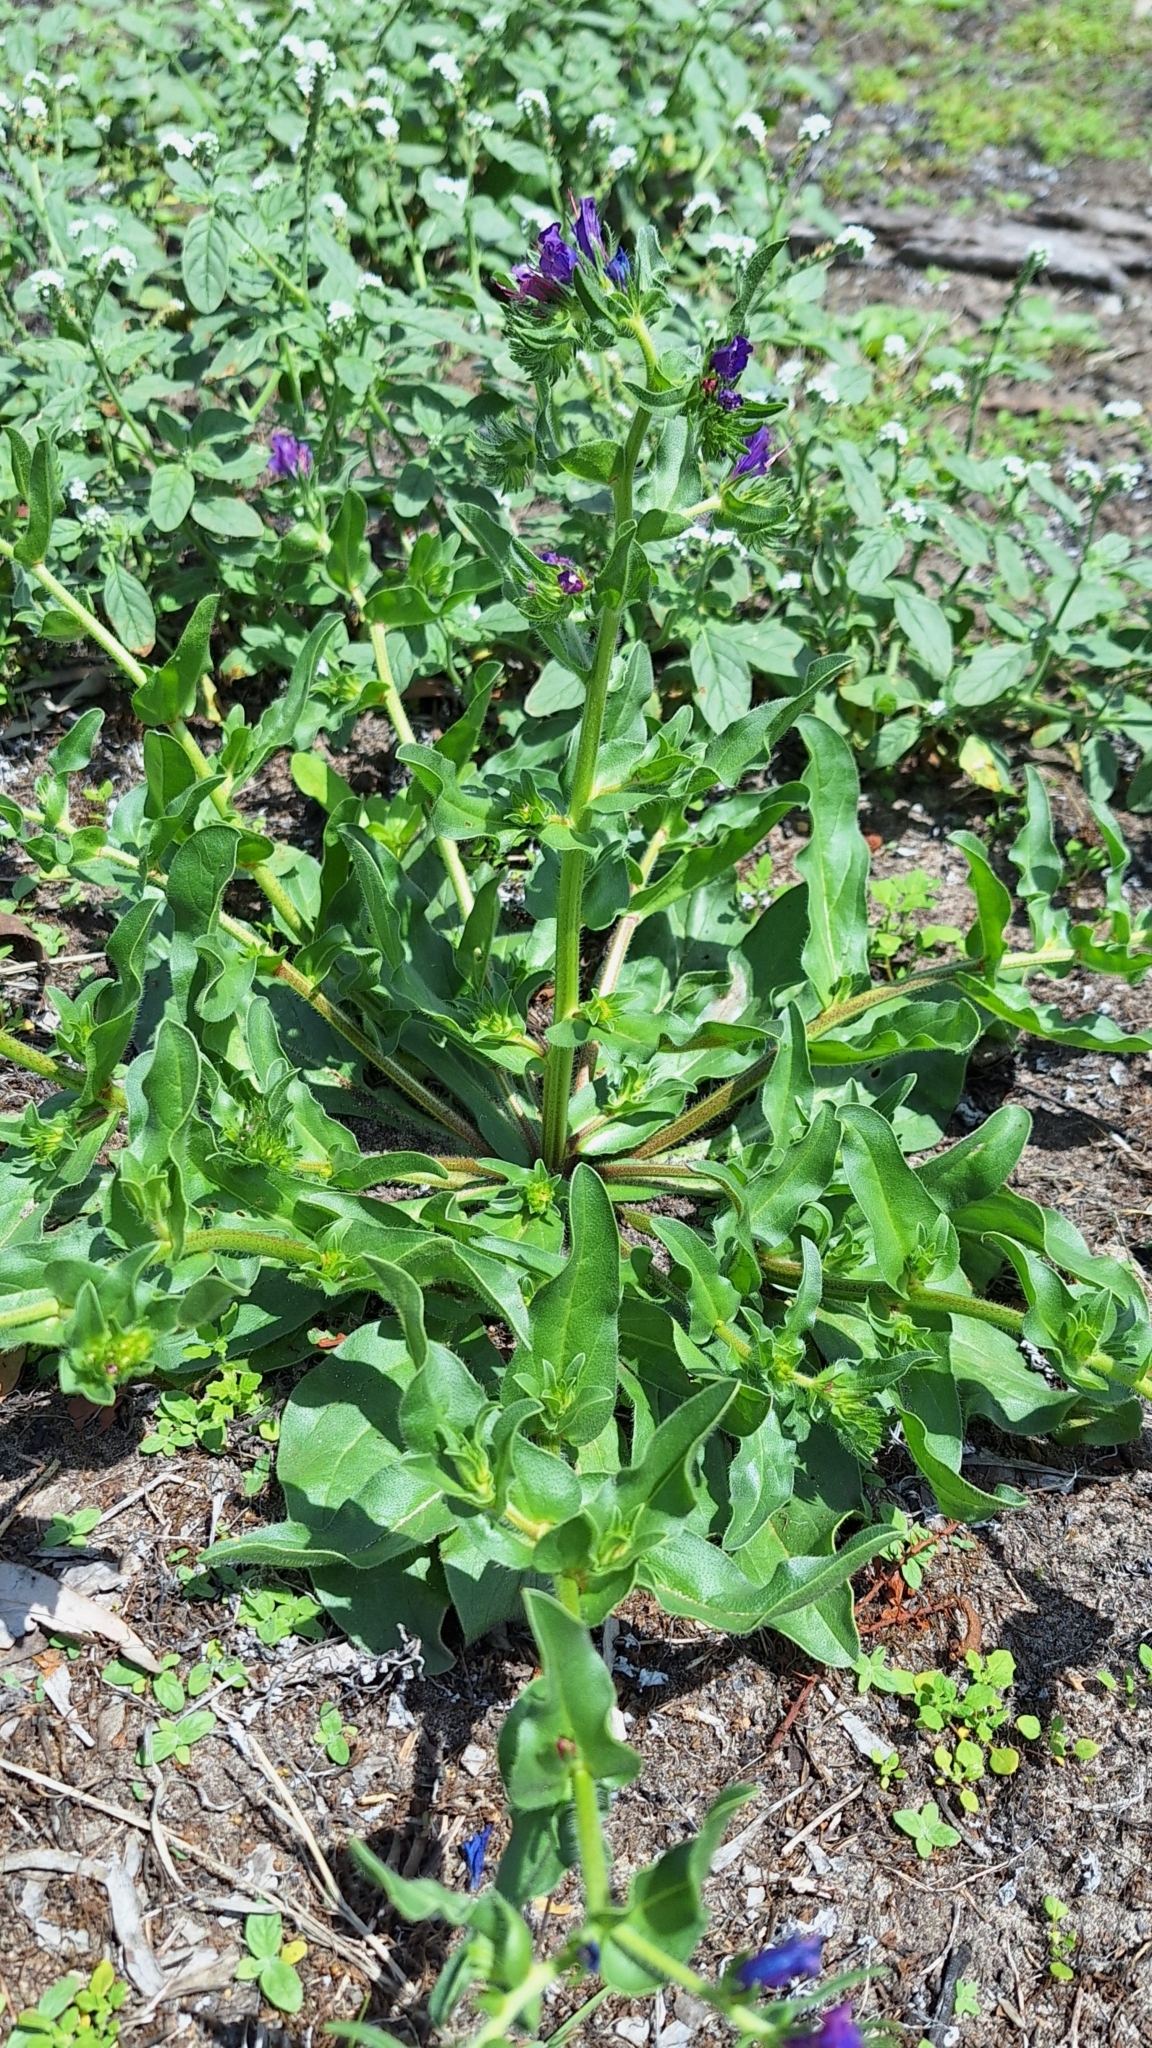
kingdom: Plantae
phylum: Tracheophyta
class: Magnoliopsida
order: Boraginales
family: Boraginaceae
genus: Echium
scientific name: Echium plantagineum
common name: Purple viper's-bugloss
